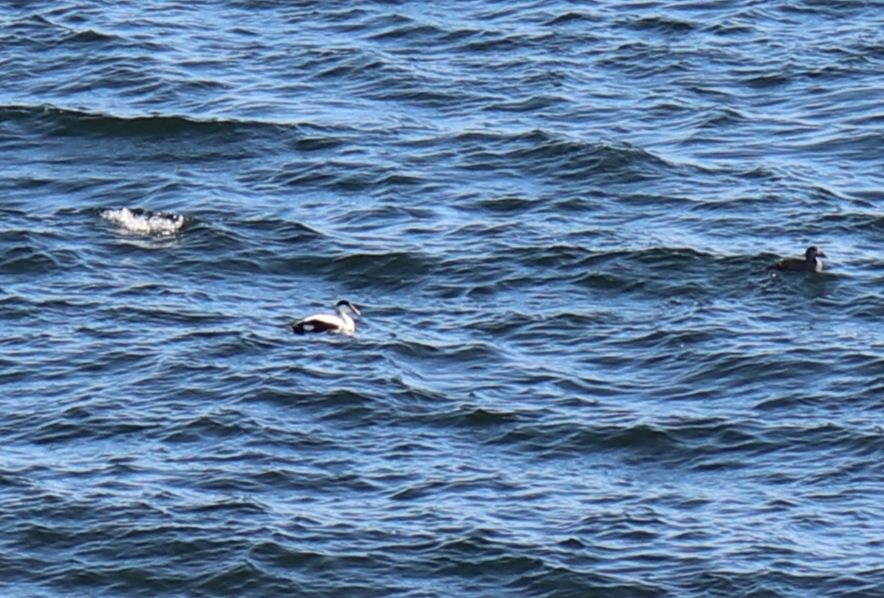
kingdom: Animalia
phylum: Chordata
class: Aves
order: Anseriformes
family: Anatidae
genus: Somateria
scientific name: Somateria mollissima
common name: Common eider
